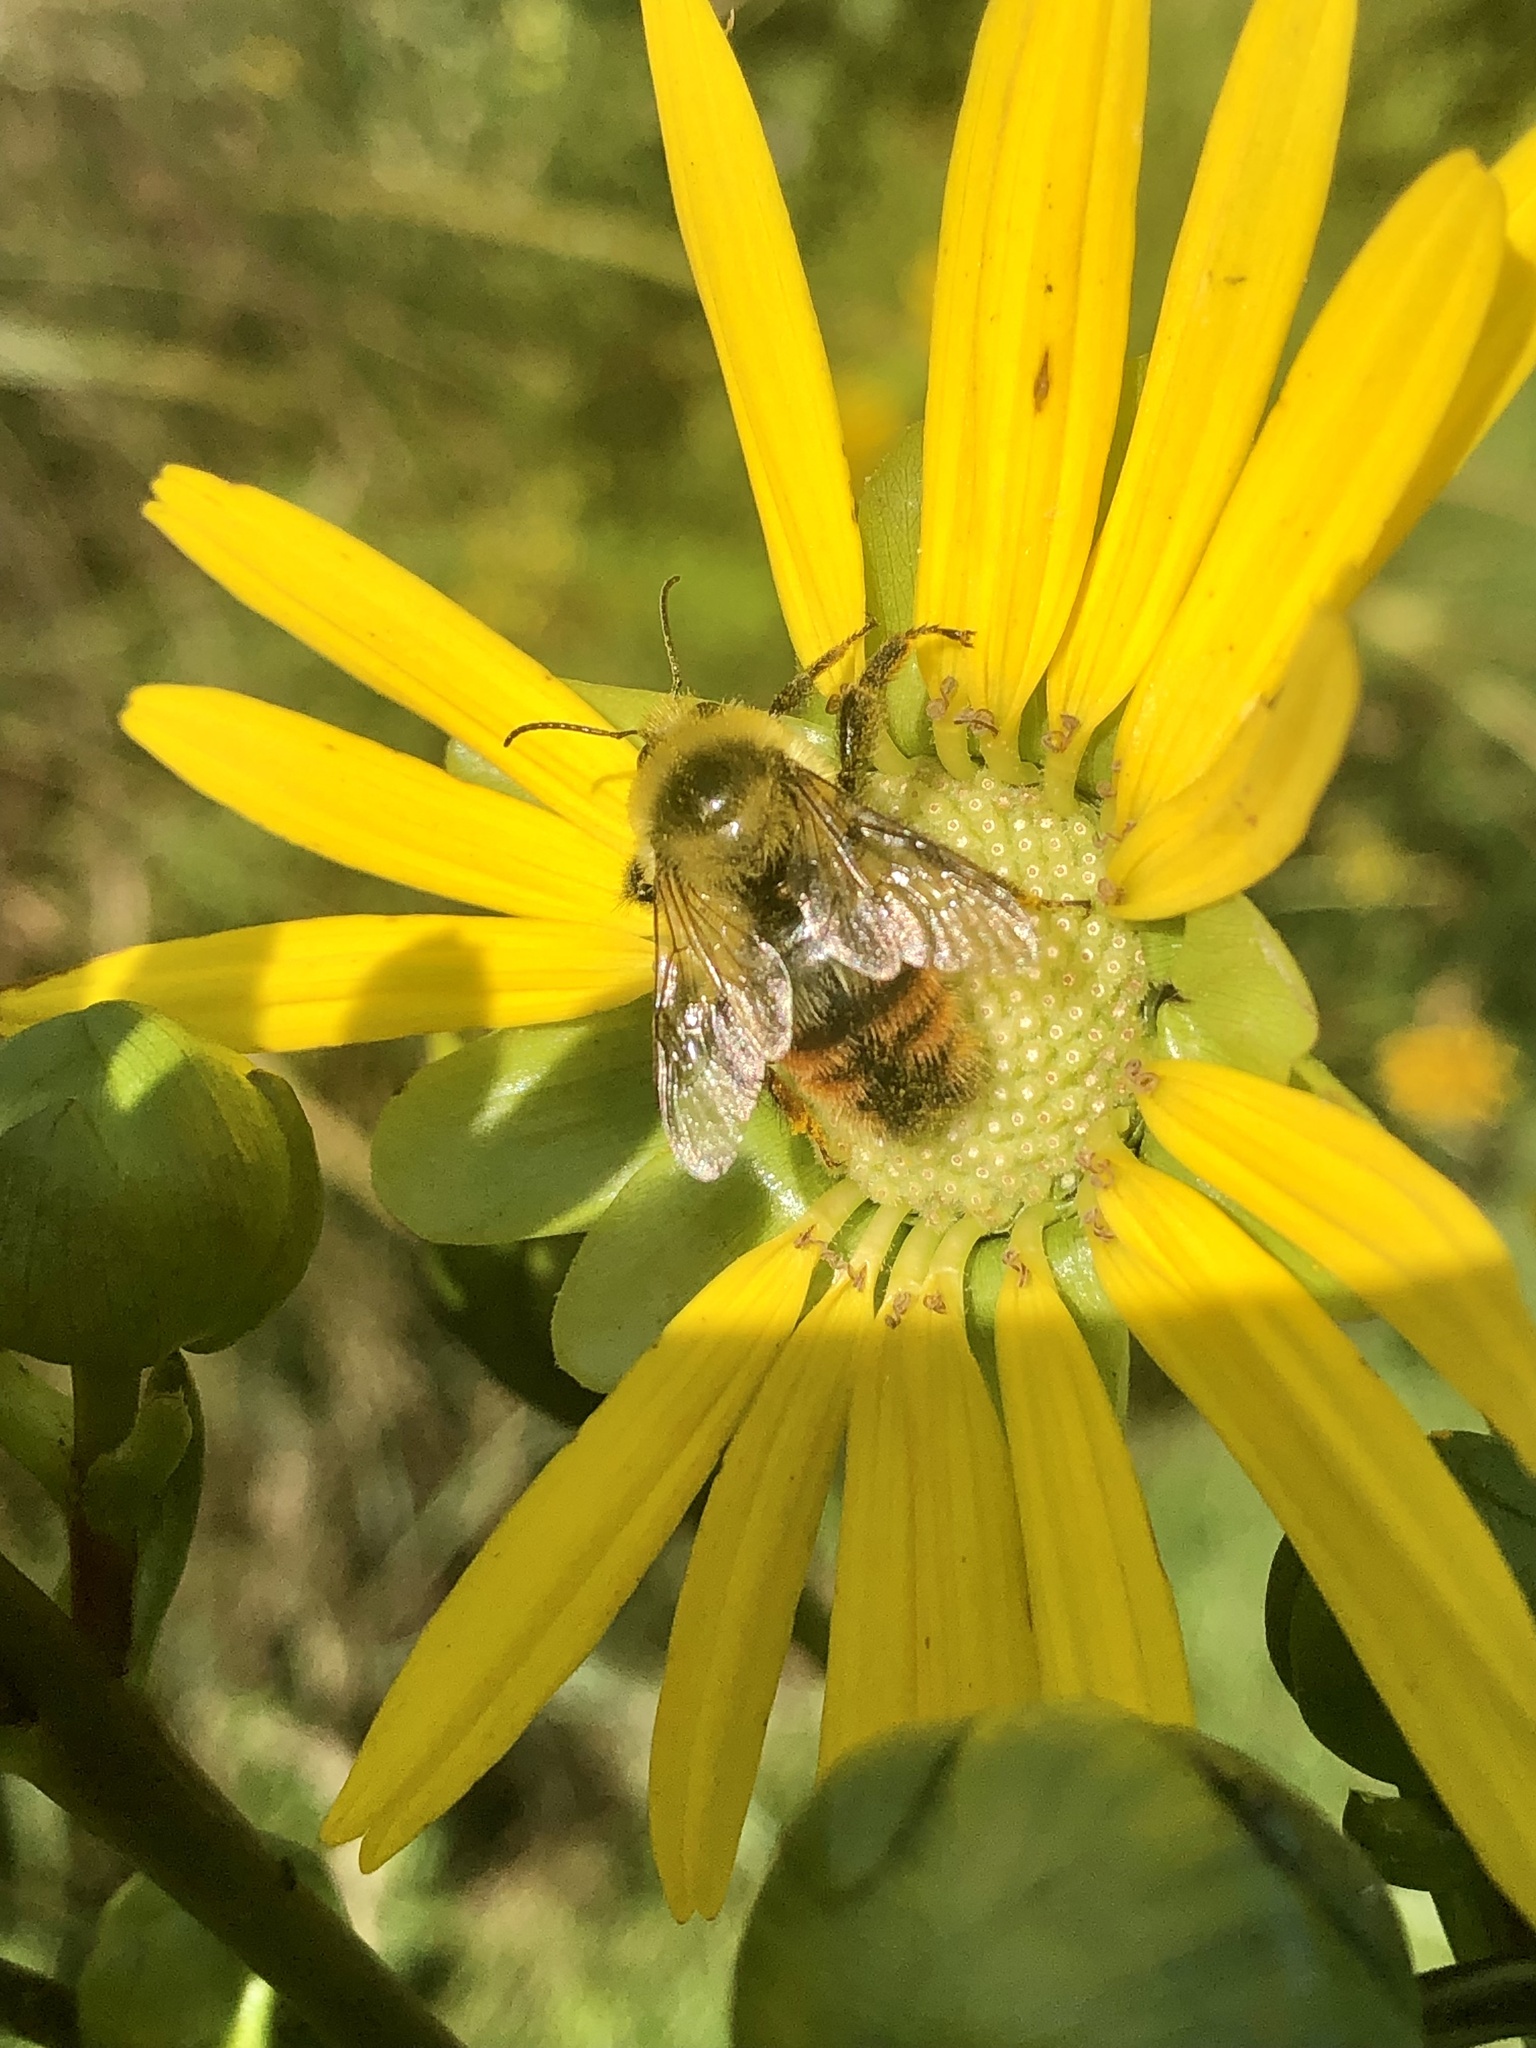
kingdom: Animalia
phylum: Arthropoda
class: Insecta
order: Hymenoptera
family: Apidae
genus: Bombus
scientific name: Bombus rufocinctus
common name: Red-belted bumble bee
